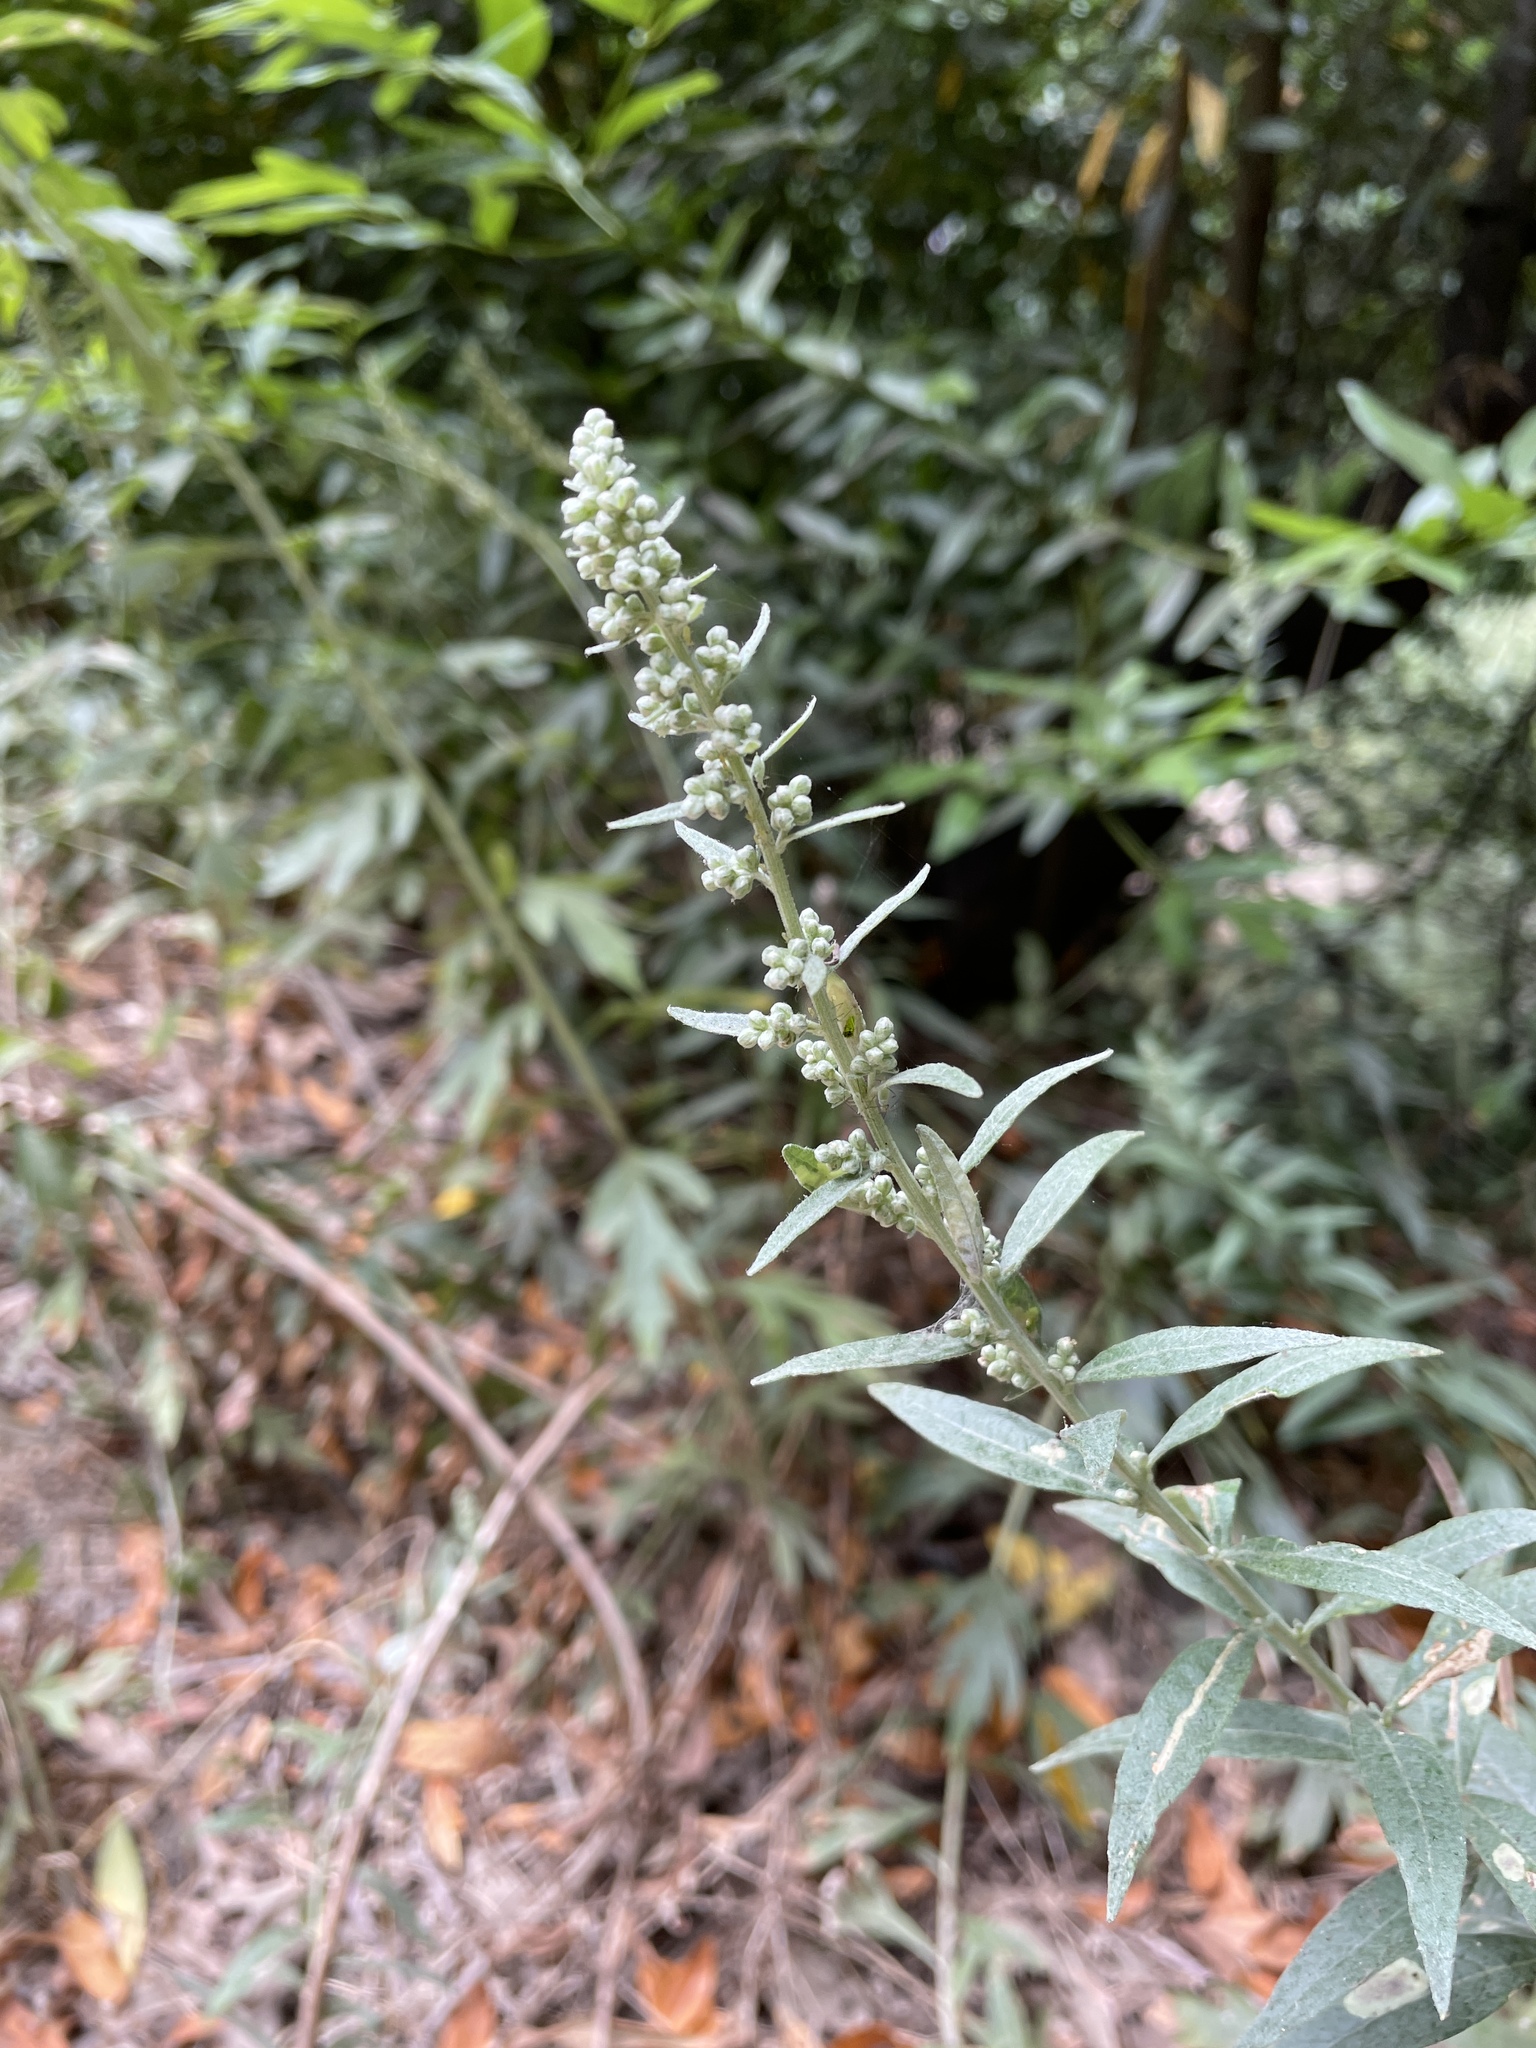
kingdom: Plantae
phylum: Tracheophyta
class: Magnoliopsida
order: Asterales
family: Asteraceae
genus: Artemisia
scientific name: Artemisia douglasiana
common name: Northwest mugwort
